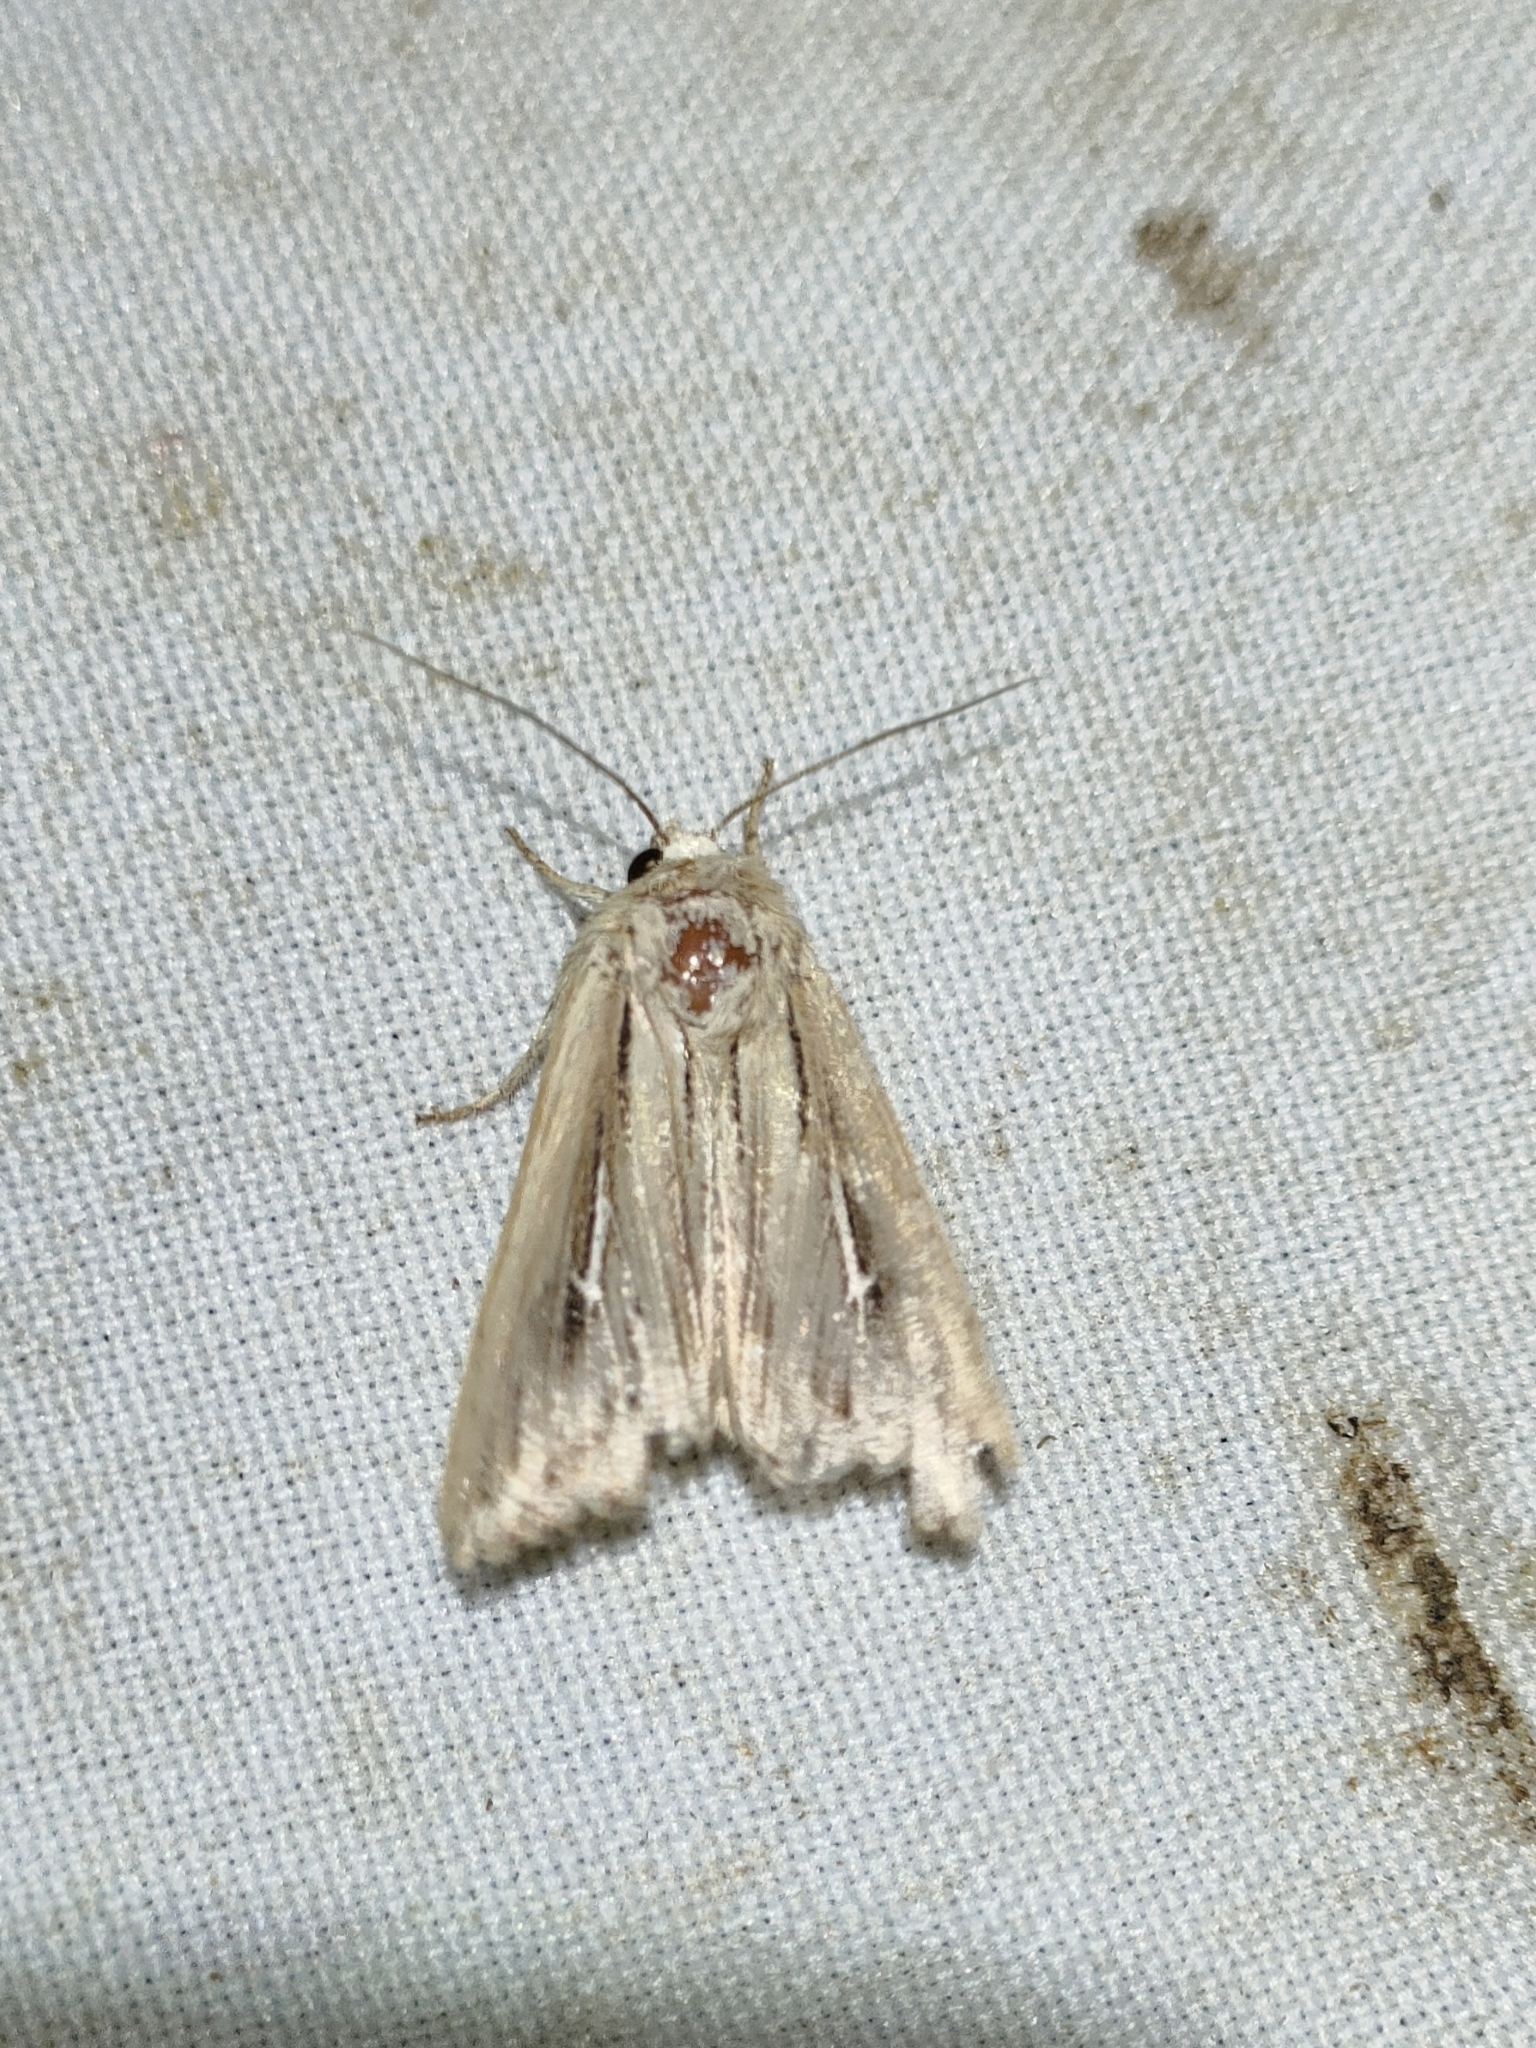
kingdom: Animalia
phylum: Arthropoda
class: Insecta
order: Lepidoptera
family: Noctuidae
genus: Mythimna
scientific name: Mythimna l-album
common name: L-album wainscot
